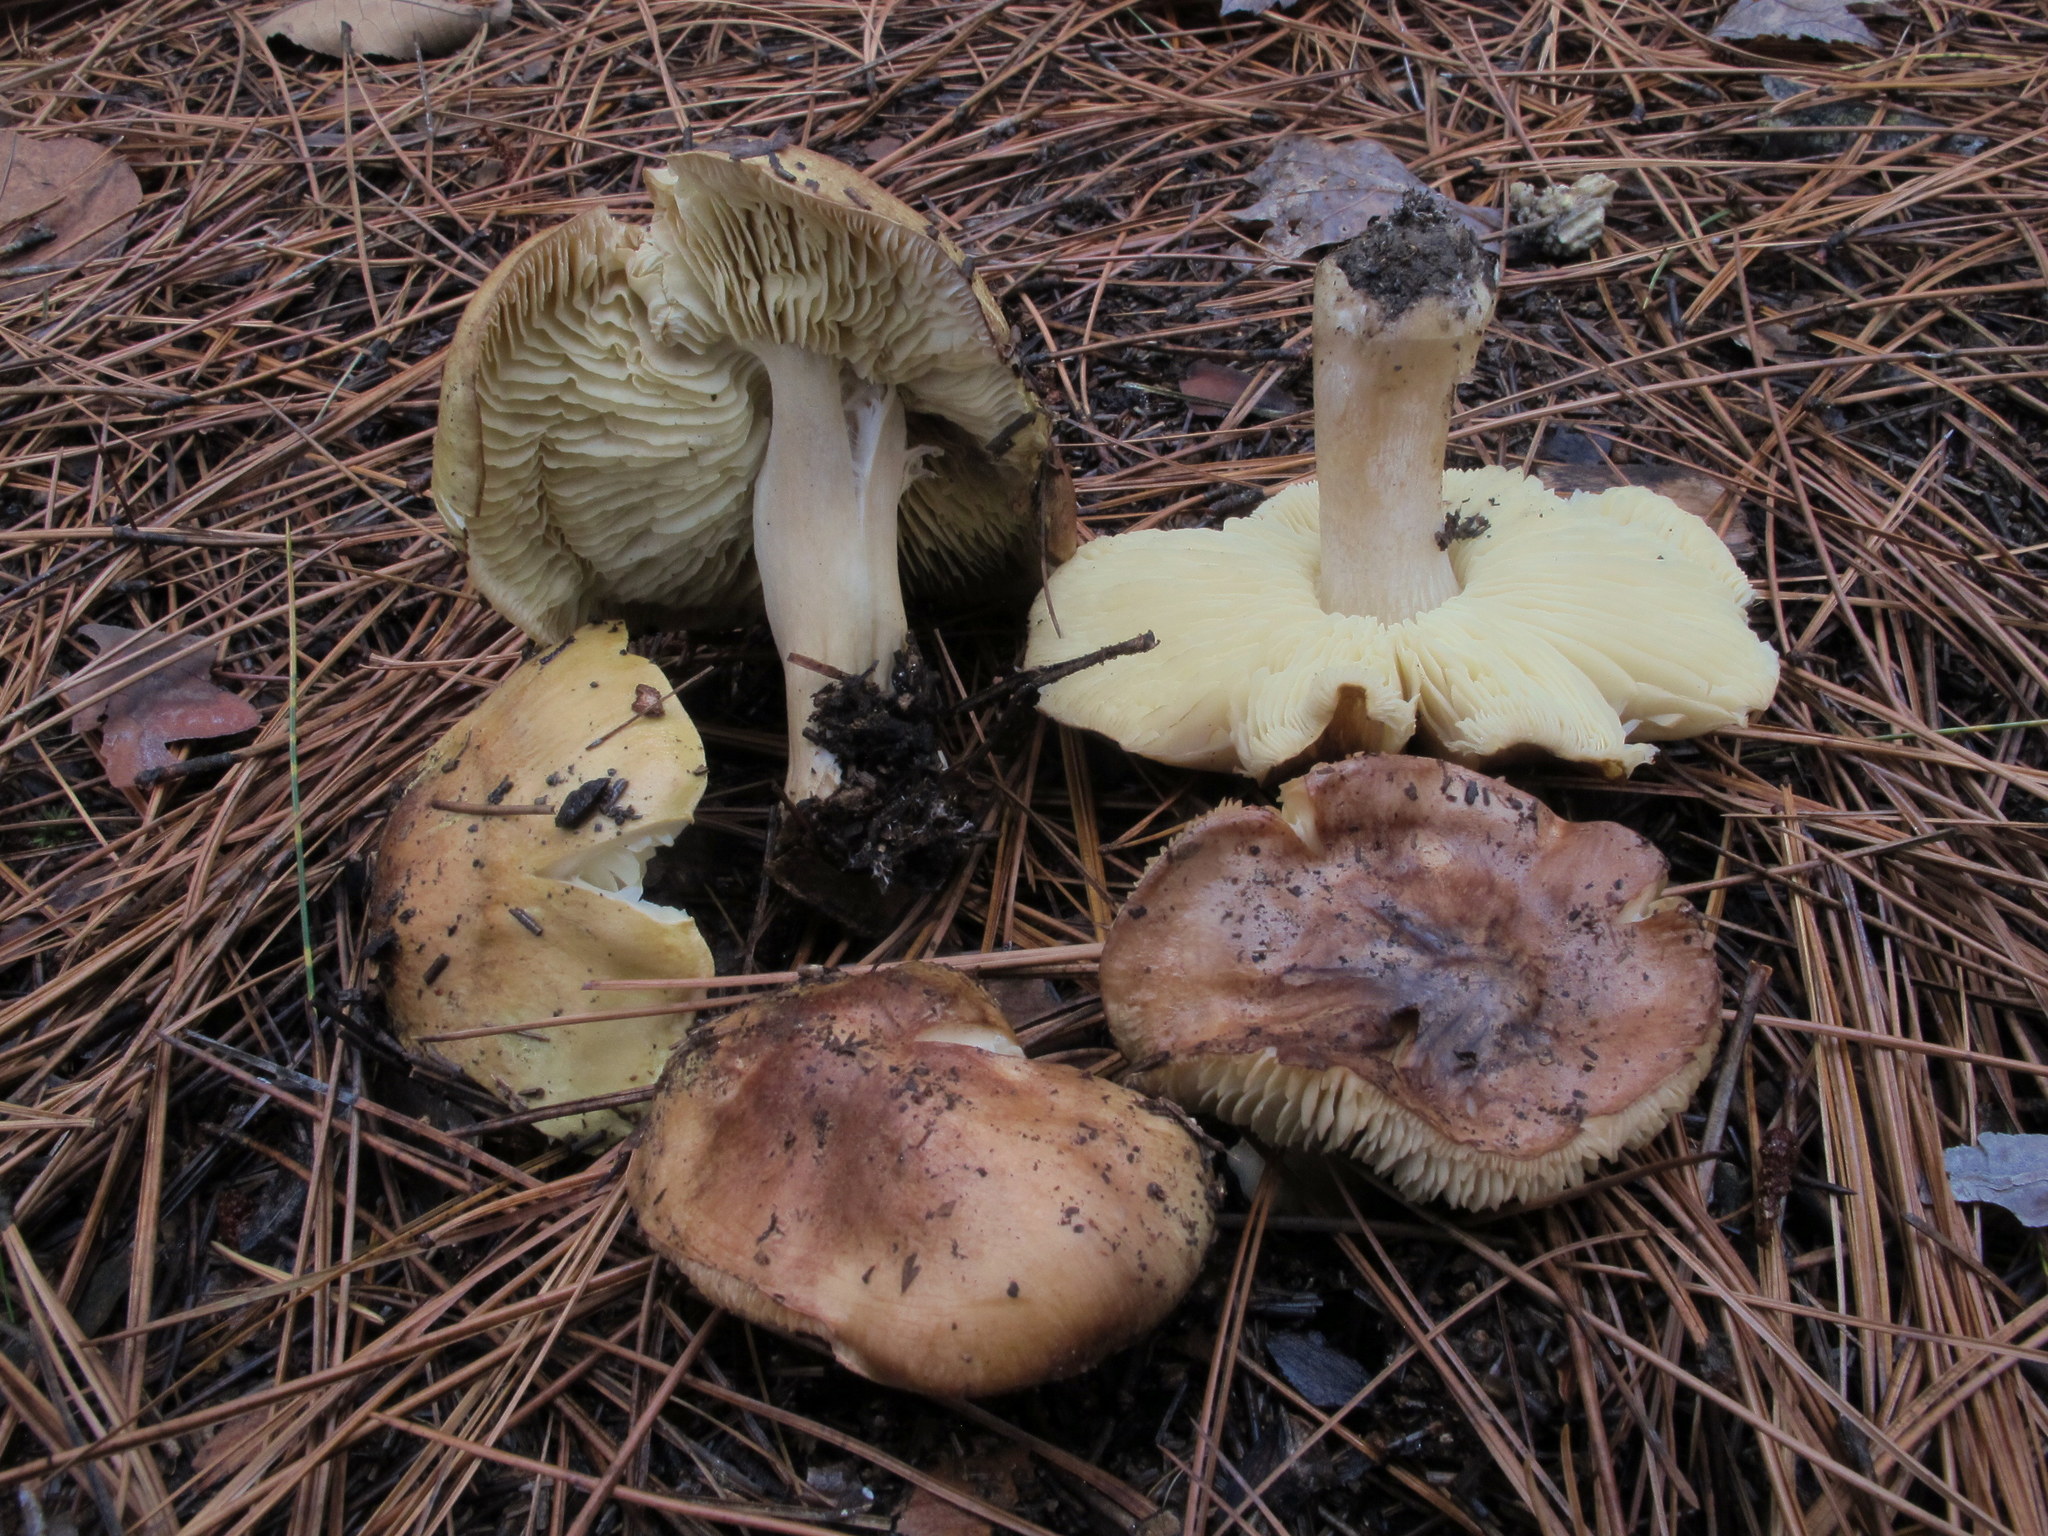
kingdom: Fungi
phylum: Basidiomycota
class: Agaricomycetes
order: Agaricales
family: Tricholomataceae
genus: Tricholoma
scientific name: Tricholoma equestre
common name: Yellow knight
